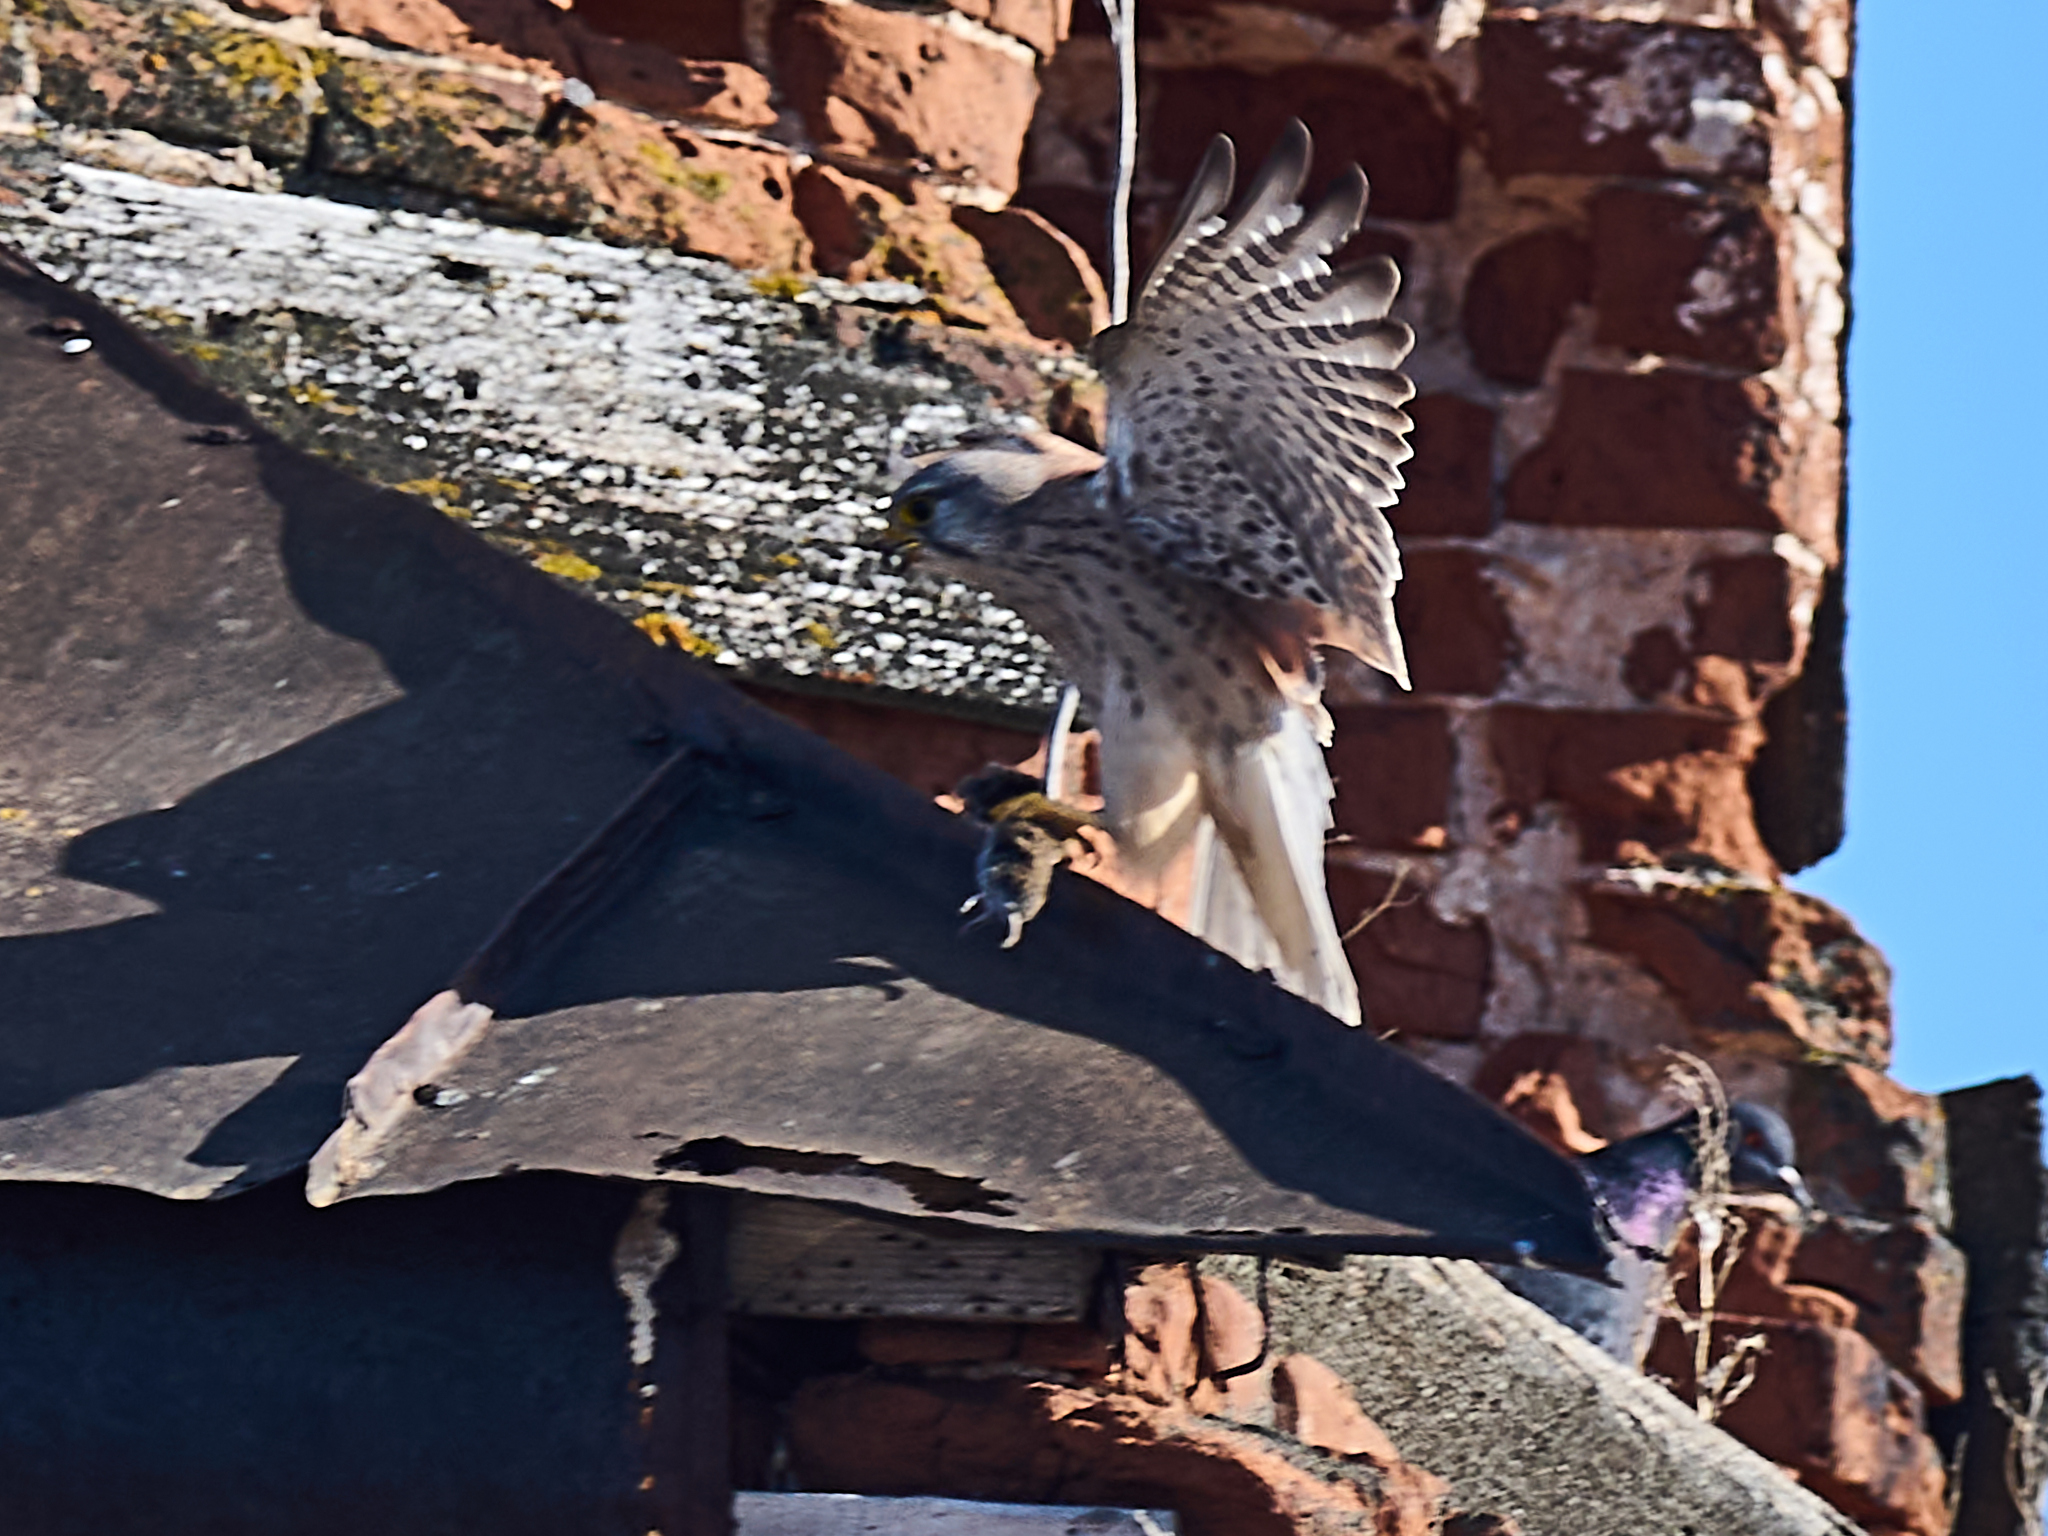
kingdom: Animalia
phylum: Chordata
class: Aves
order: Falconiformes
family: Falconidae
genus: Falco
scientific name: Falco tinnunculus
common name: Common kestrel
